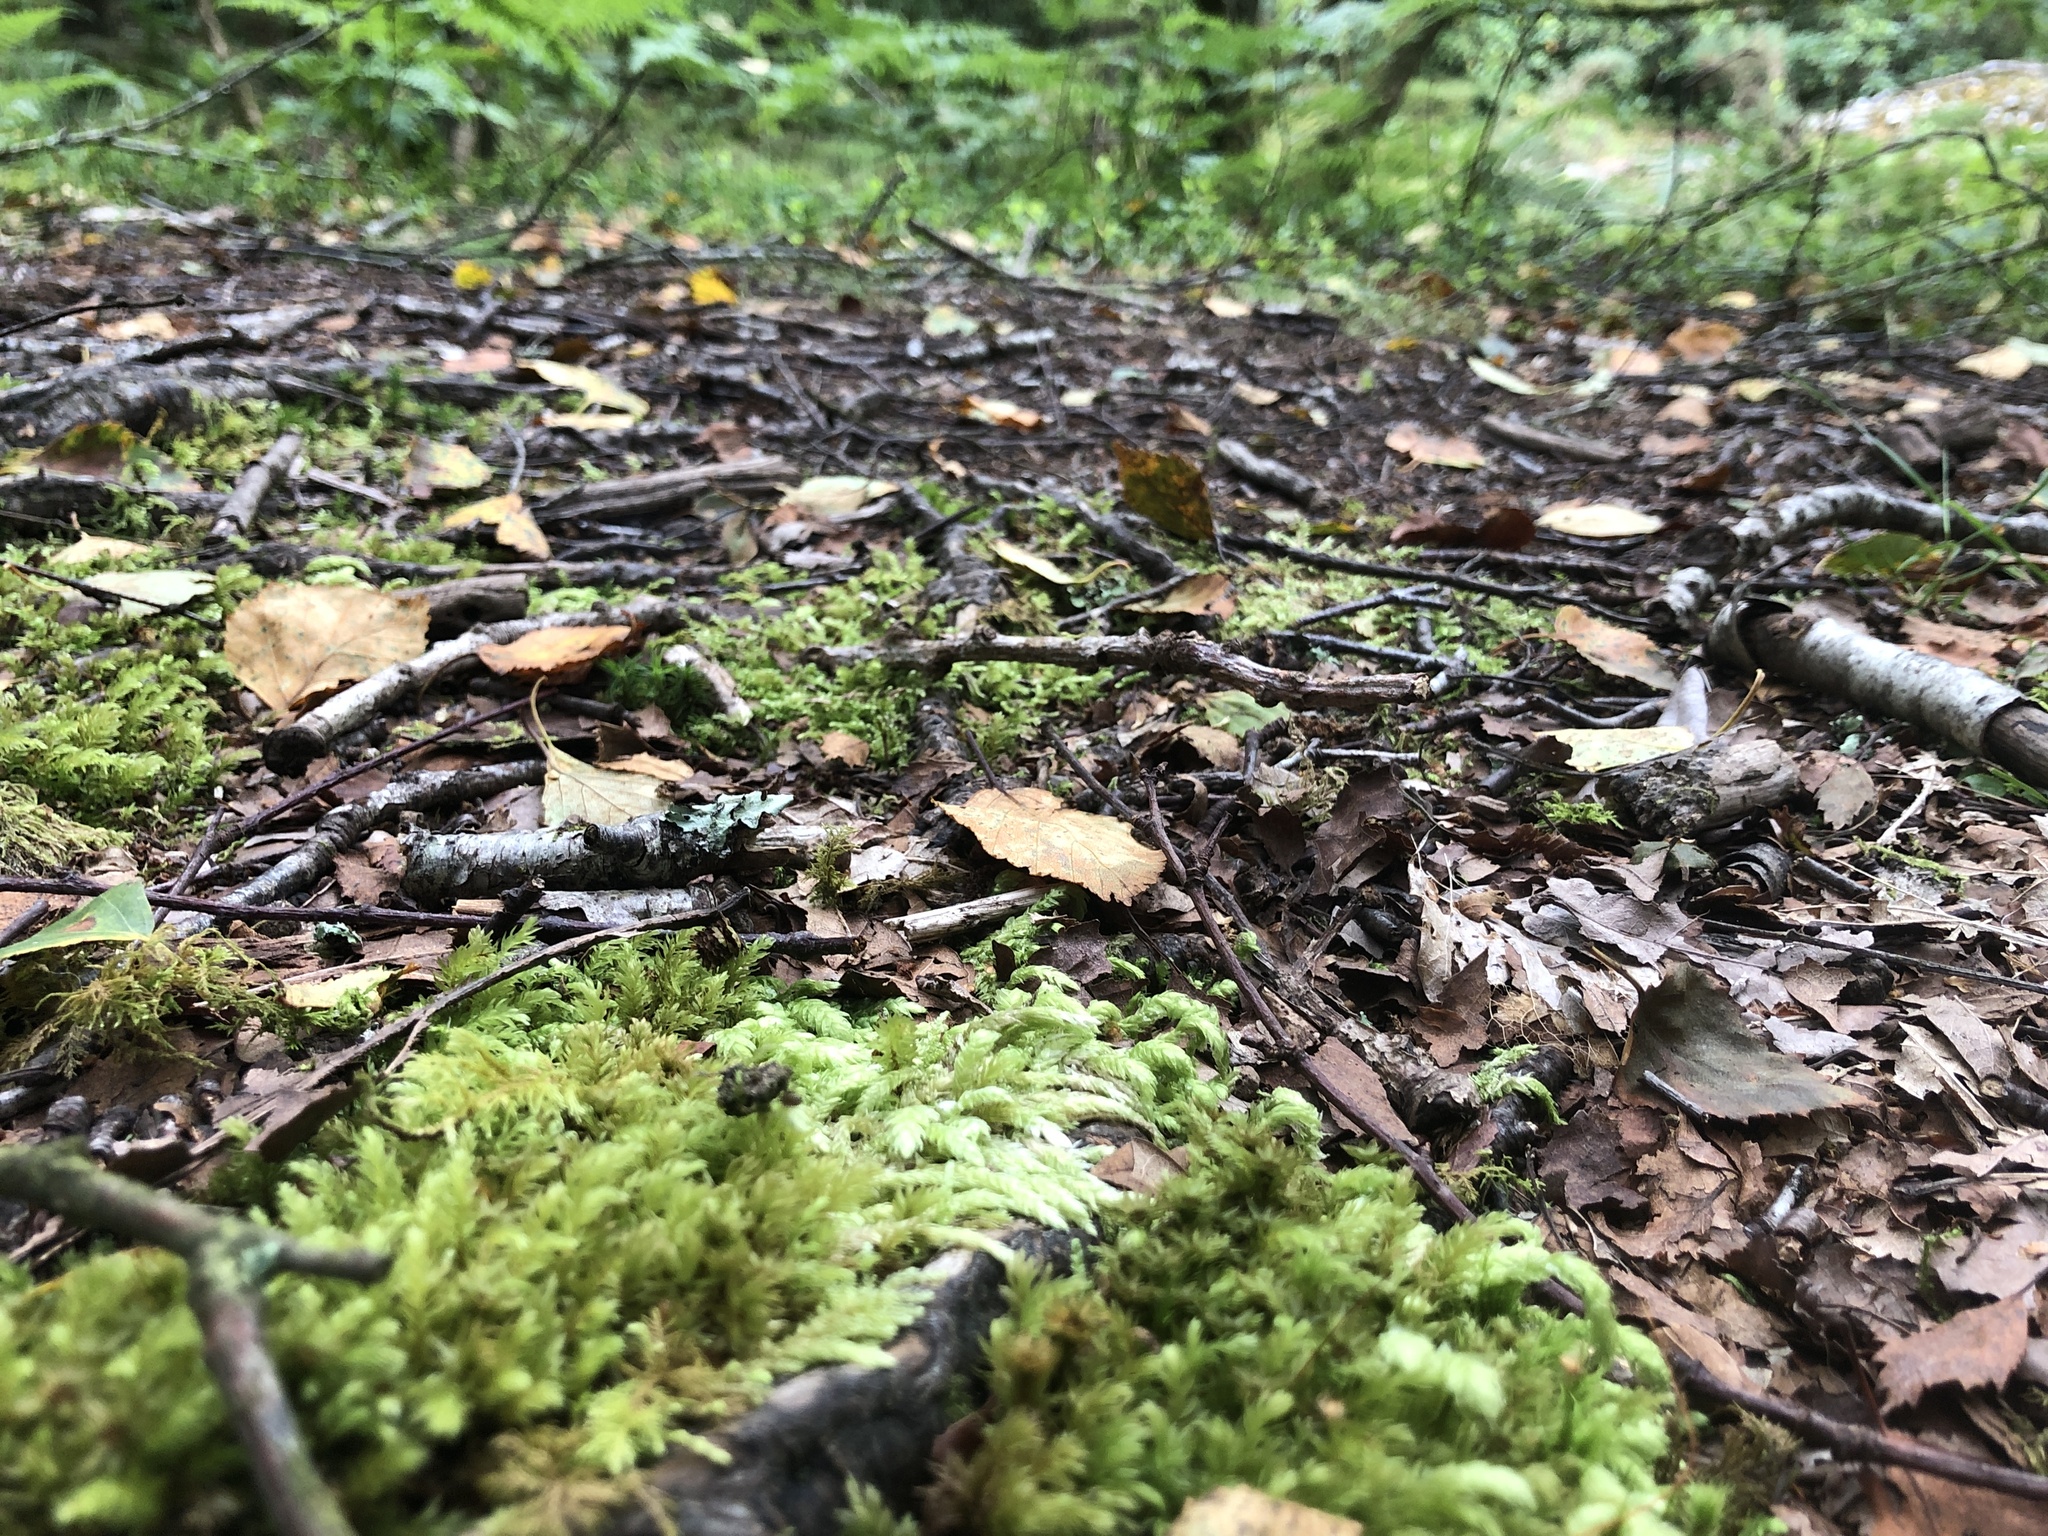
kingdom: Plantae
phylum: Bryophyta
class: Bryopsida
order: Hypnales
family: Plagiotheciaceae
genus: Plagiothecium
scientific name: Plagiothecium undulatum
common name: Waved silk-moss
